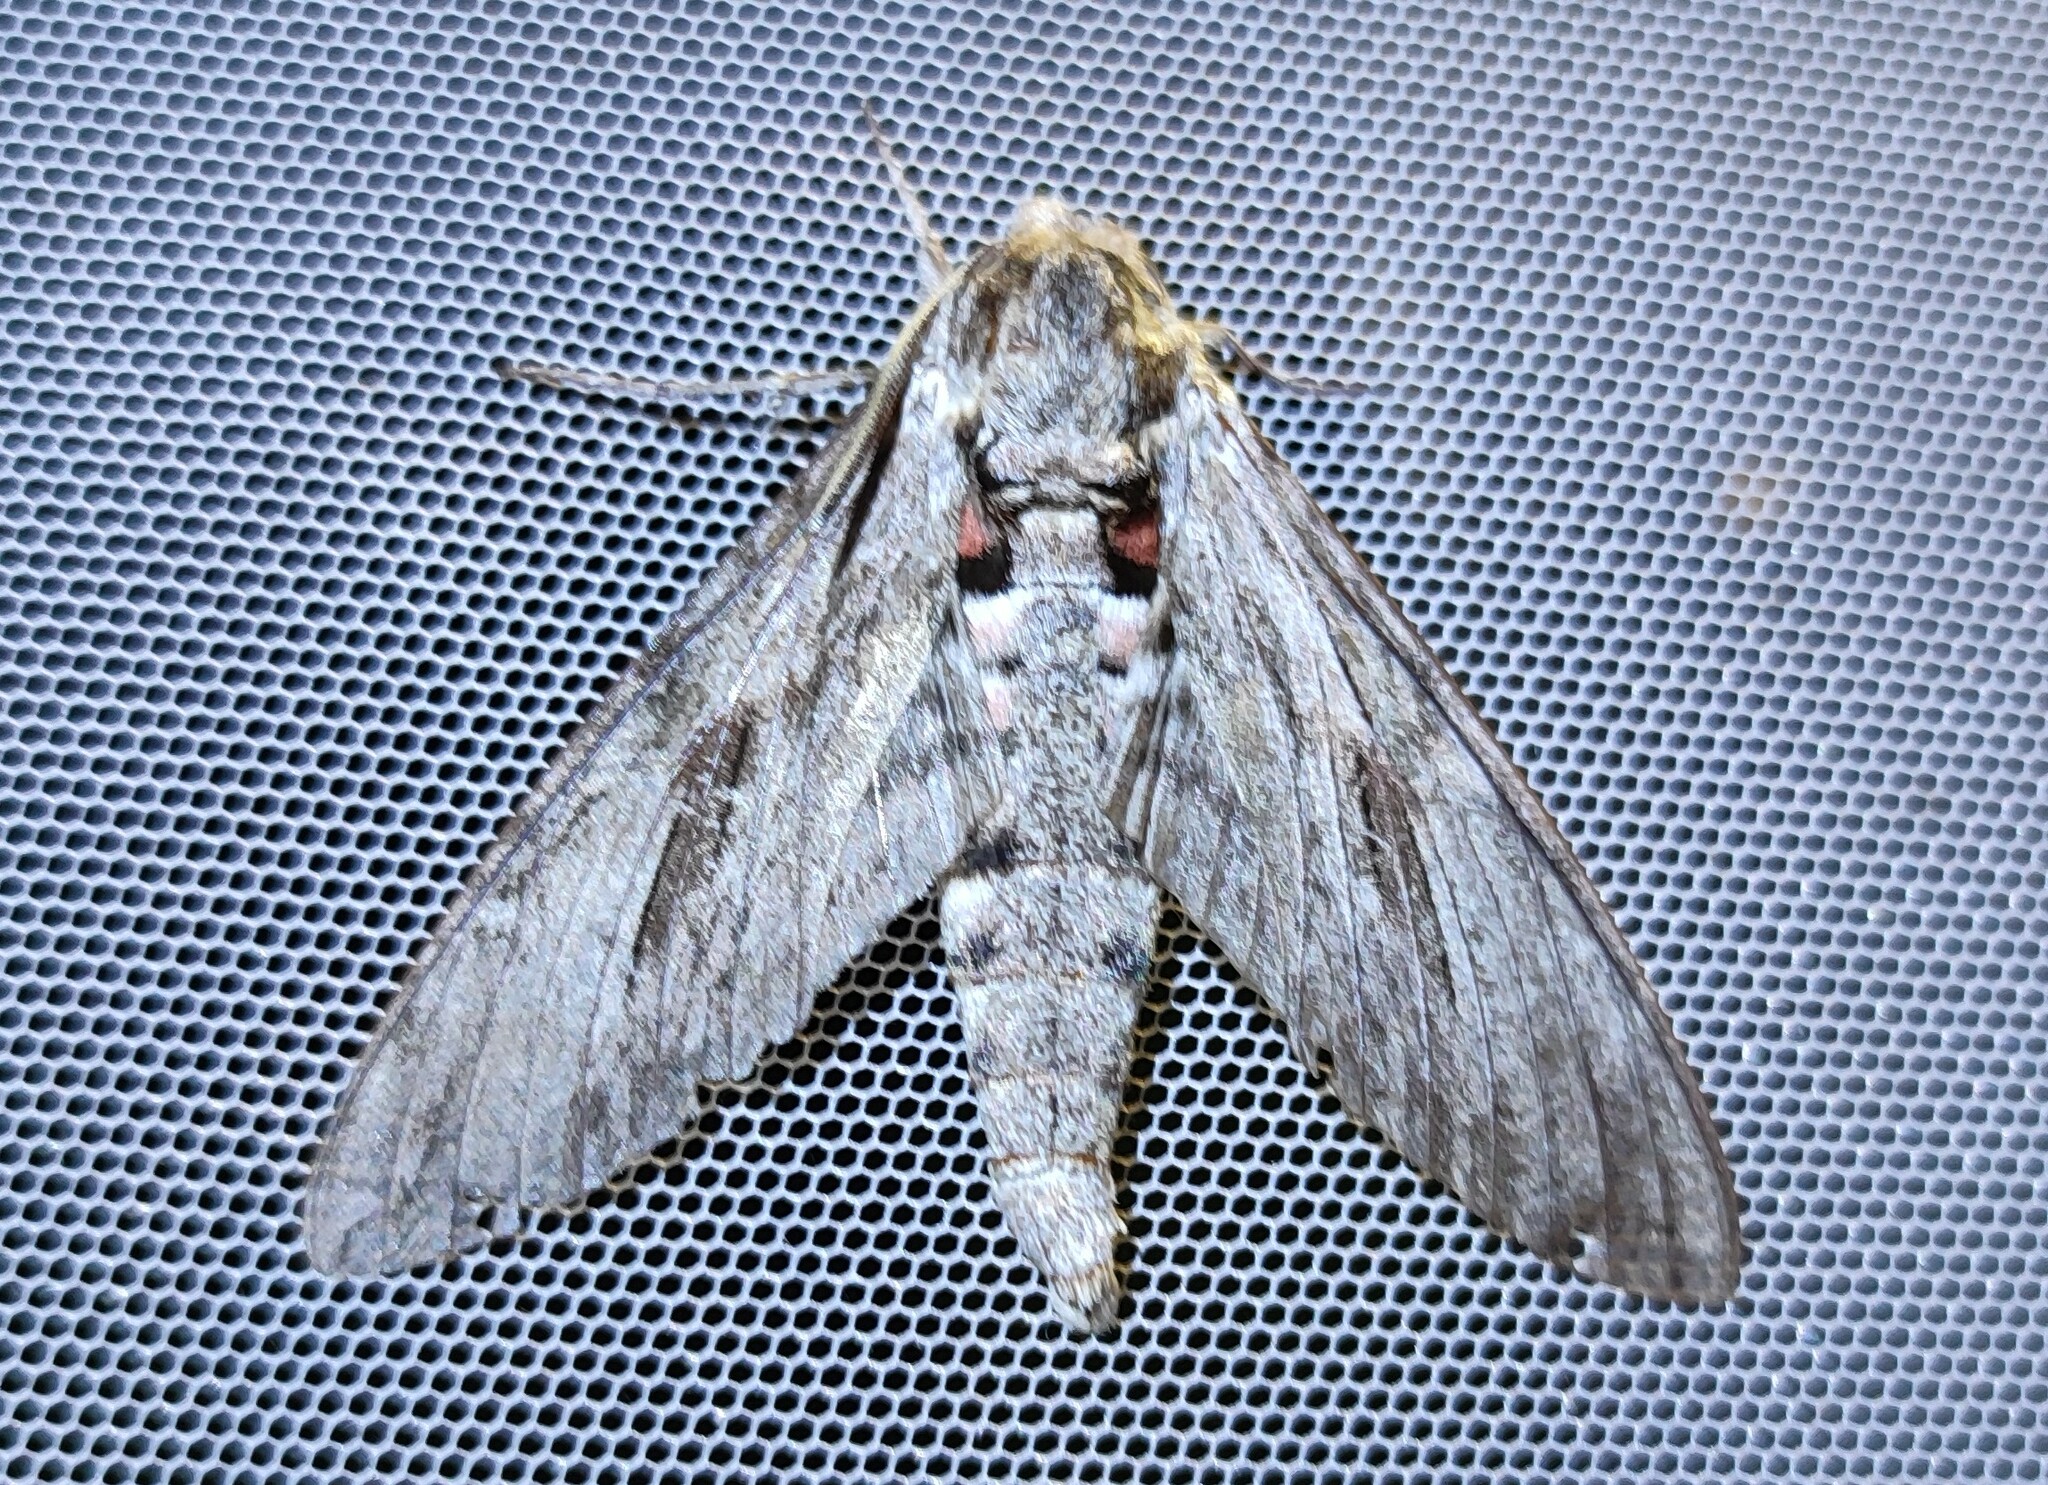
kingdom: Animalia
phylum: Arthropoda
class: Insecta
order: Lepidoptera
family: Sphingidae
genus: Agrius
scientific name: Agrius convolvuli
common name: Convolvulus hawkmoth
